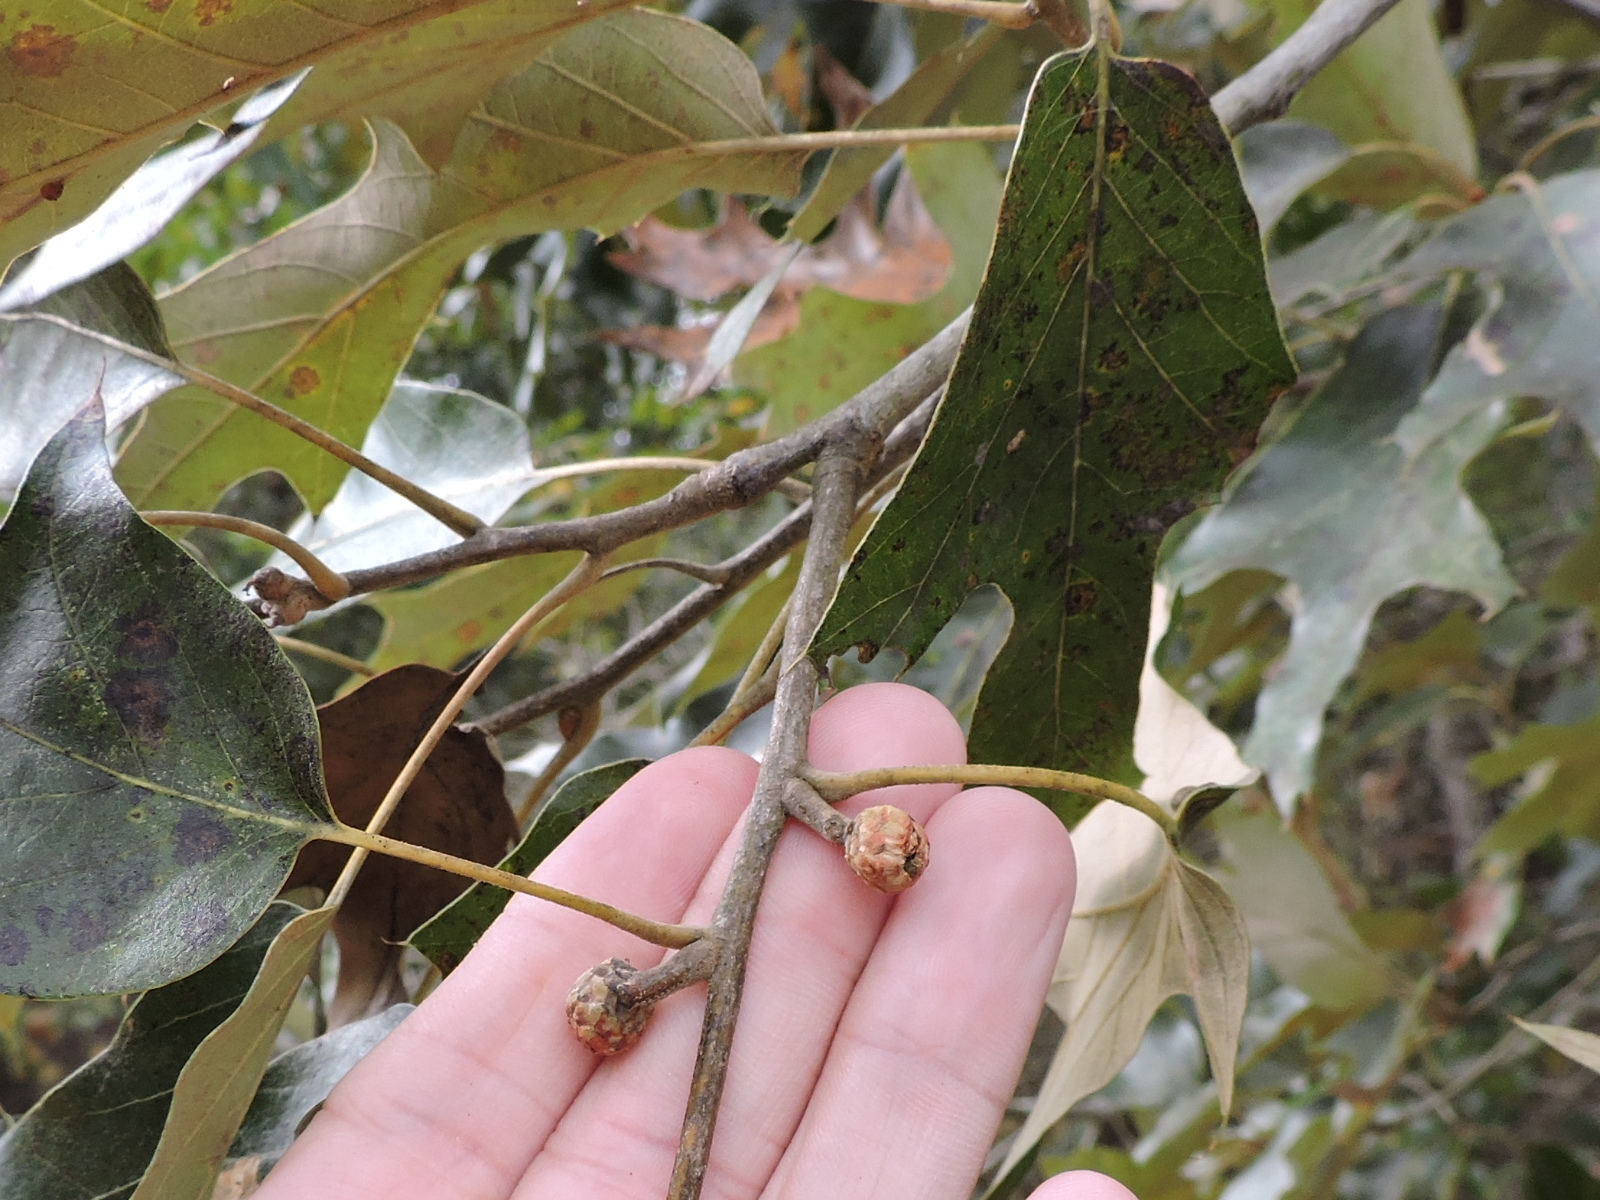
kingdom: Plantae
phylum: Tracheophyta
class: Magnoliopsida
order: Fagales
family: Fagaceae
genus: Quercus
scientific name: Quercus falcata
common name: Southern red oak
